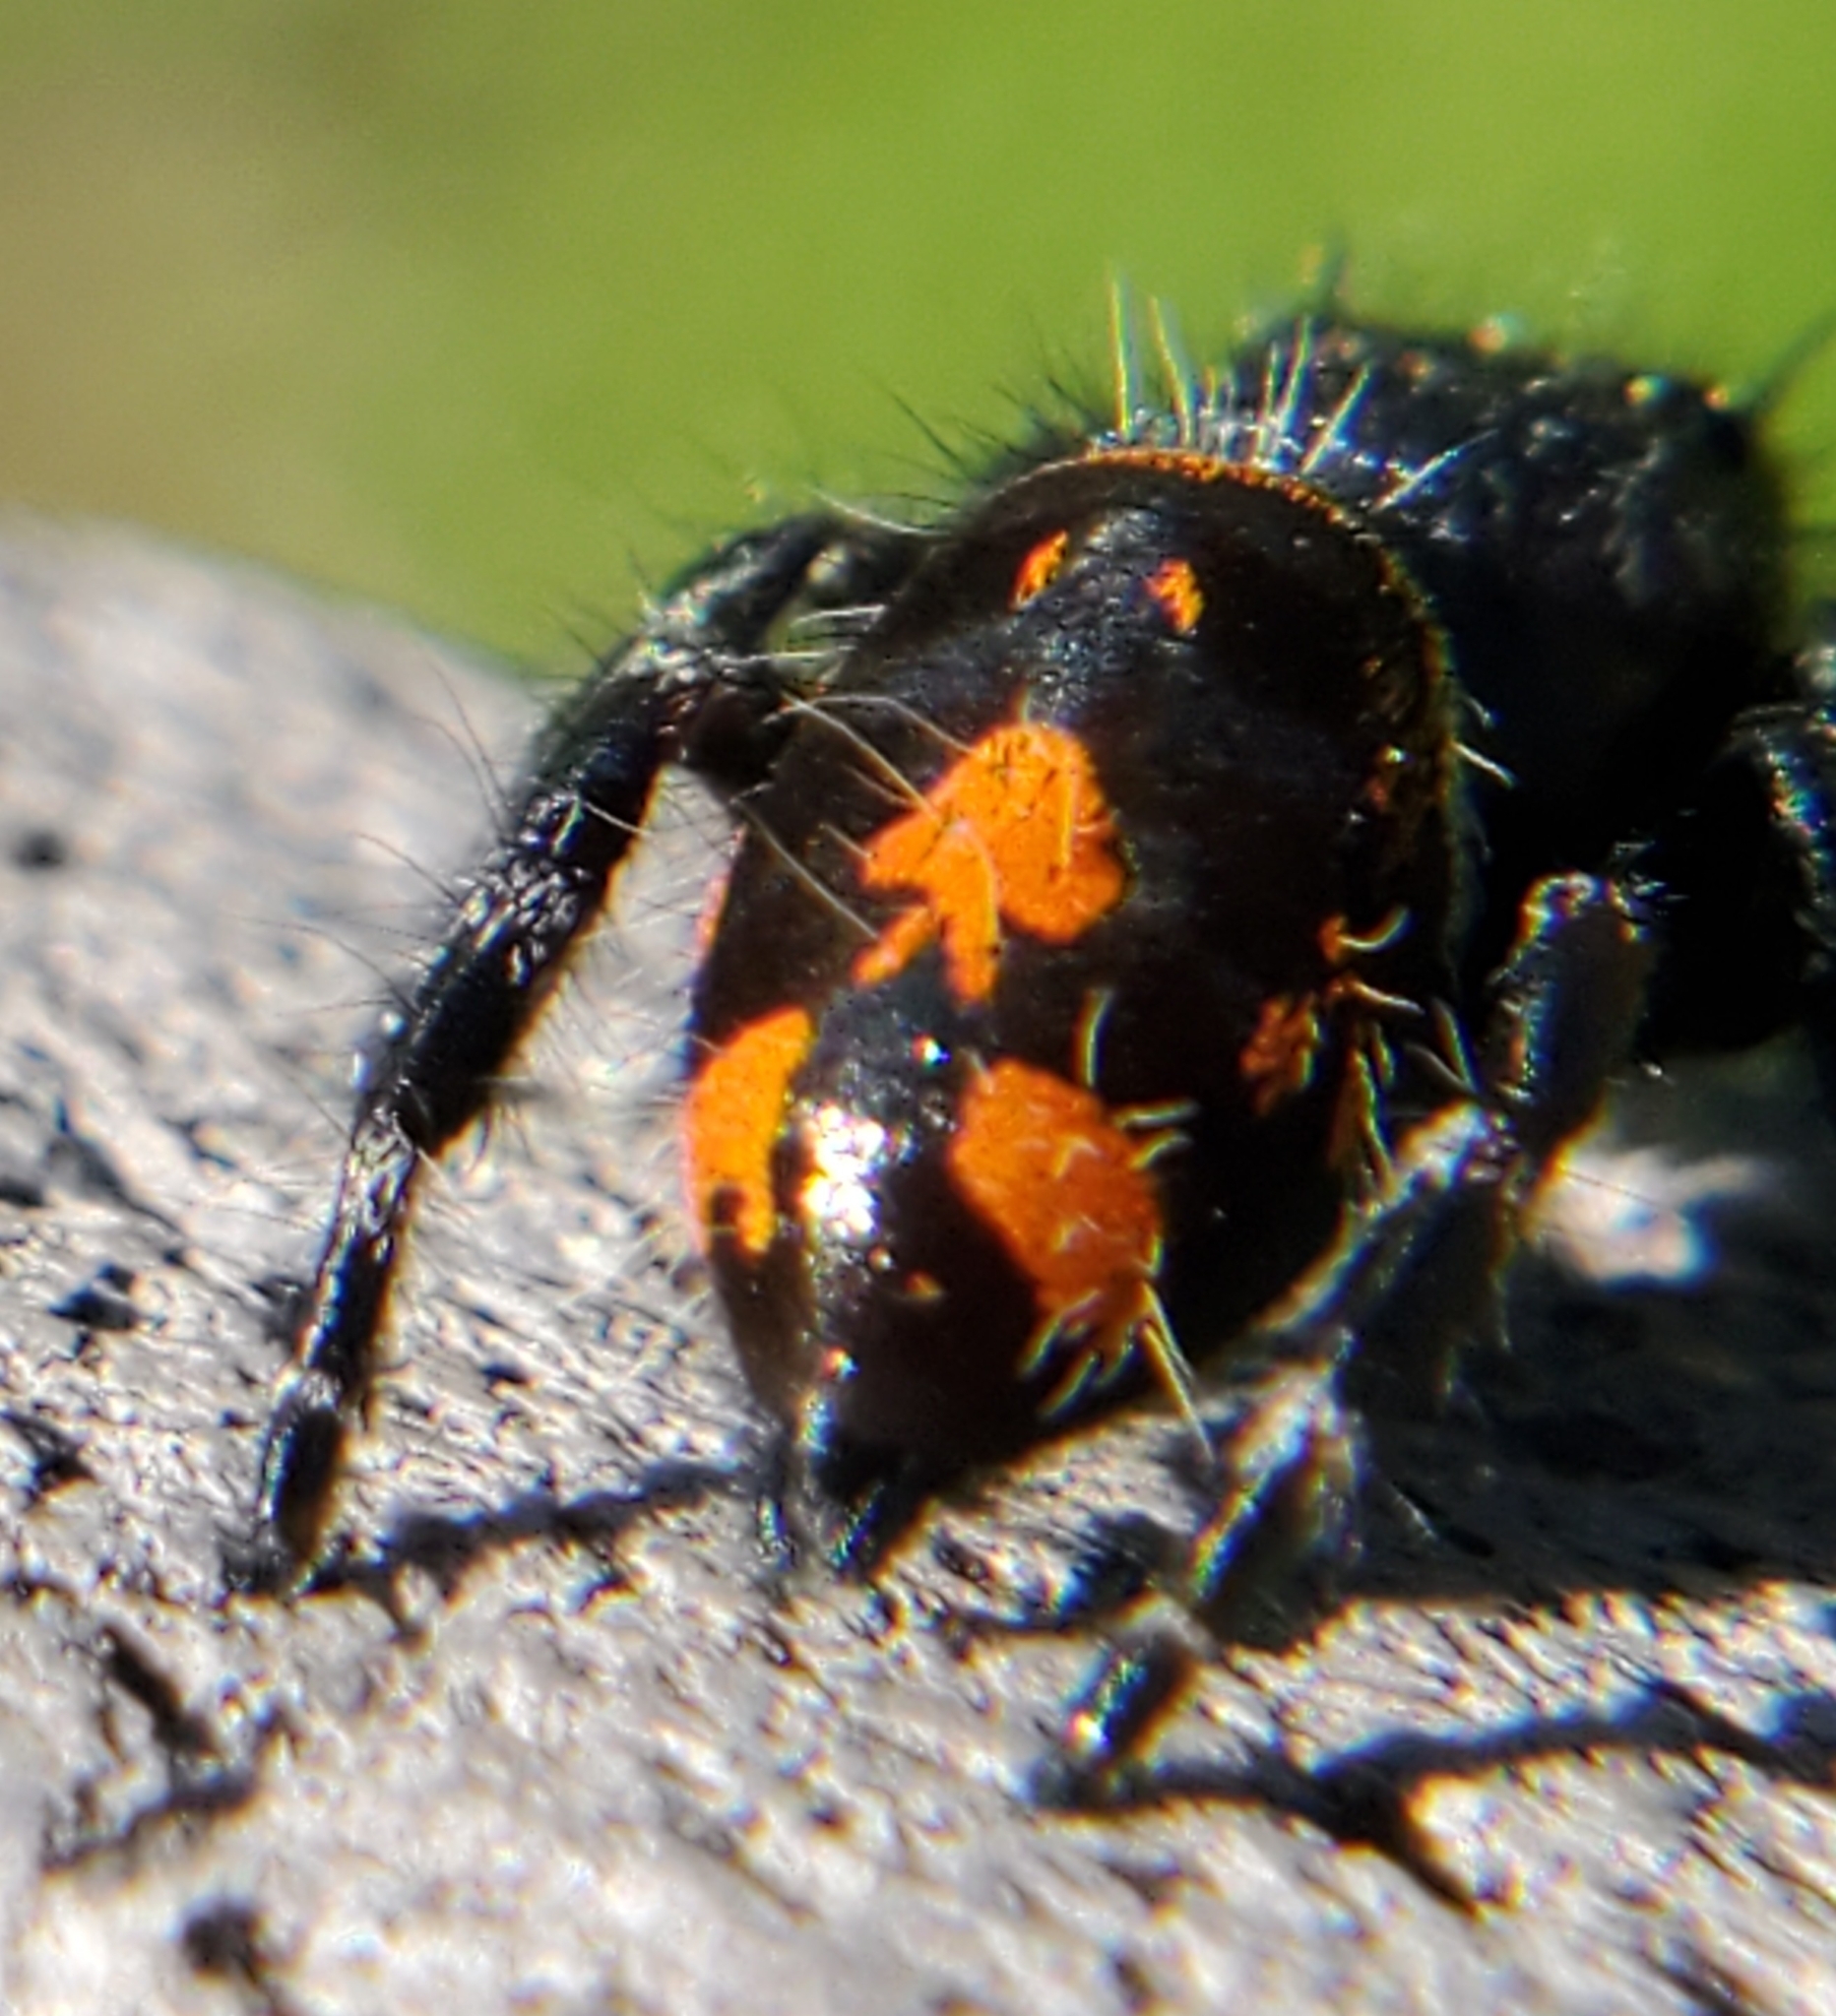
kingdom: Animalia
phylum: Arthropoda
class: Arachnida
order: Araneae
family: Salticidae
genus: Phidippus
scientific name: Phidippus audax
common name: Bold jumper
